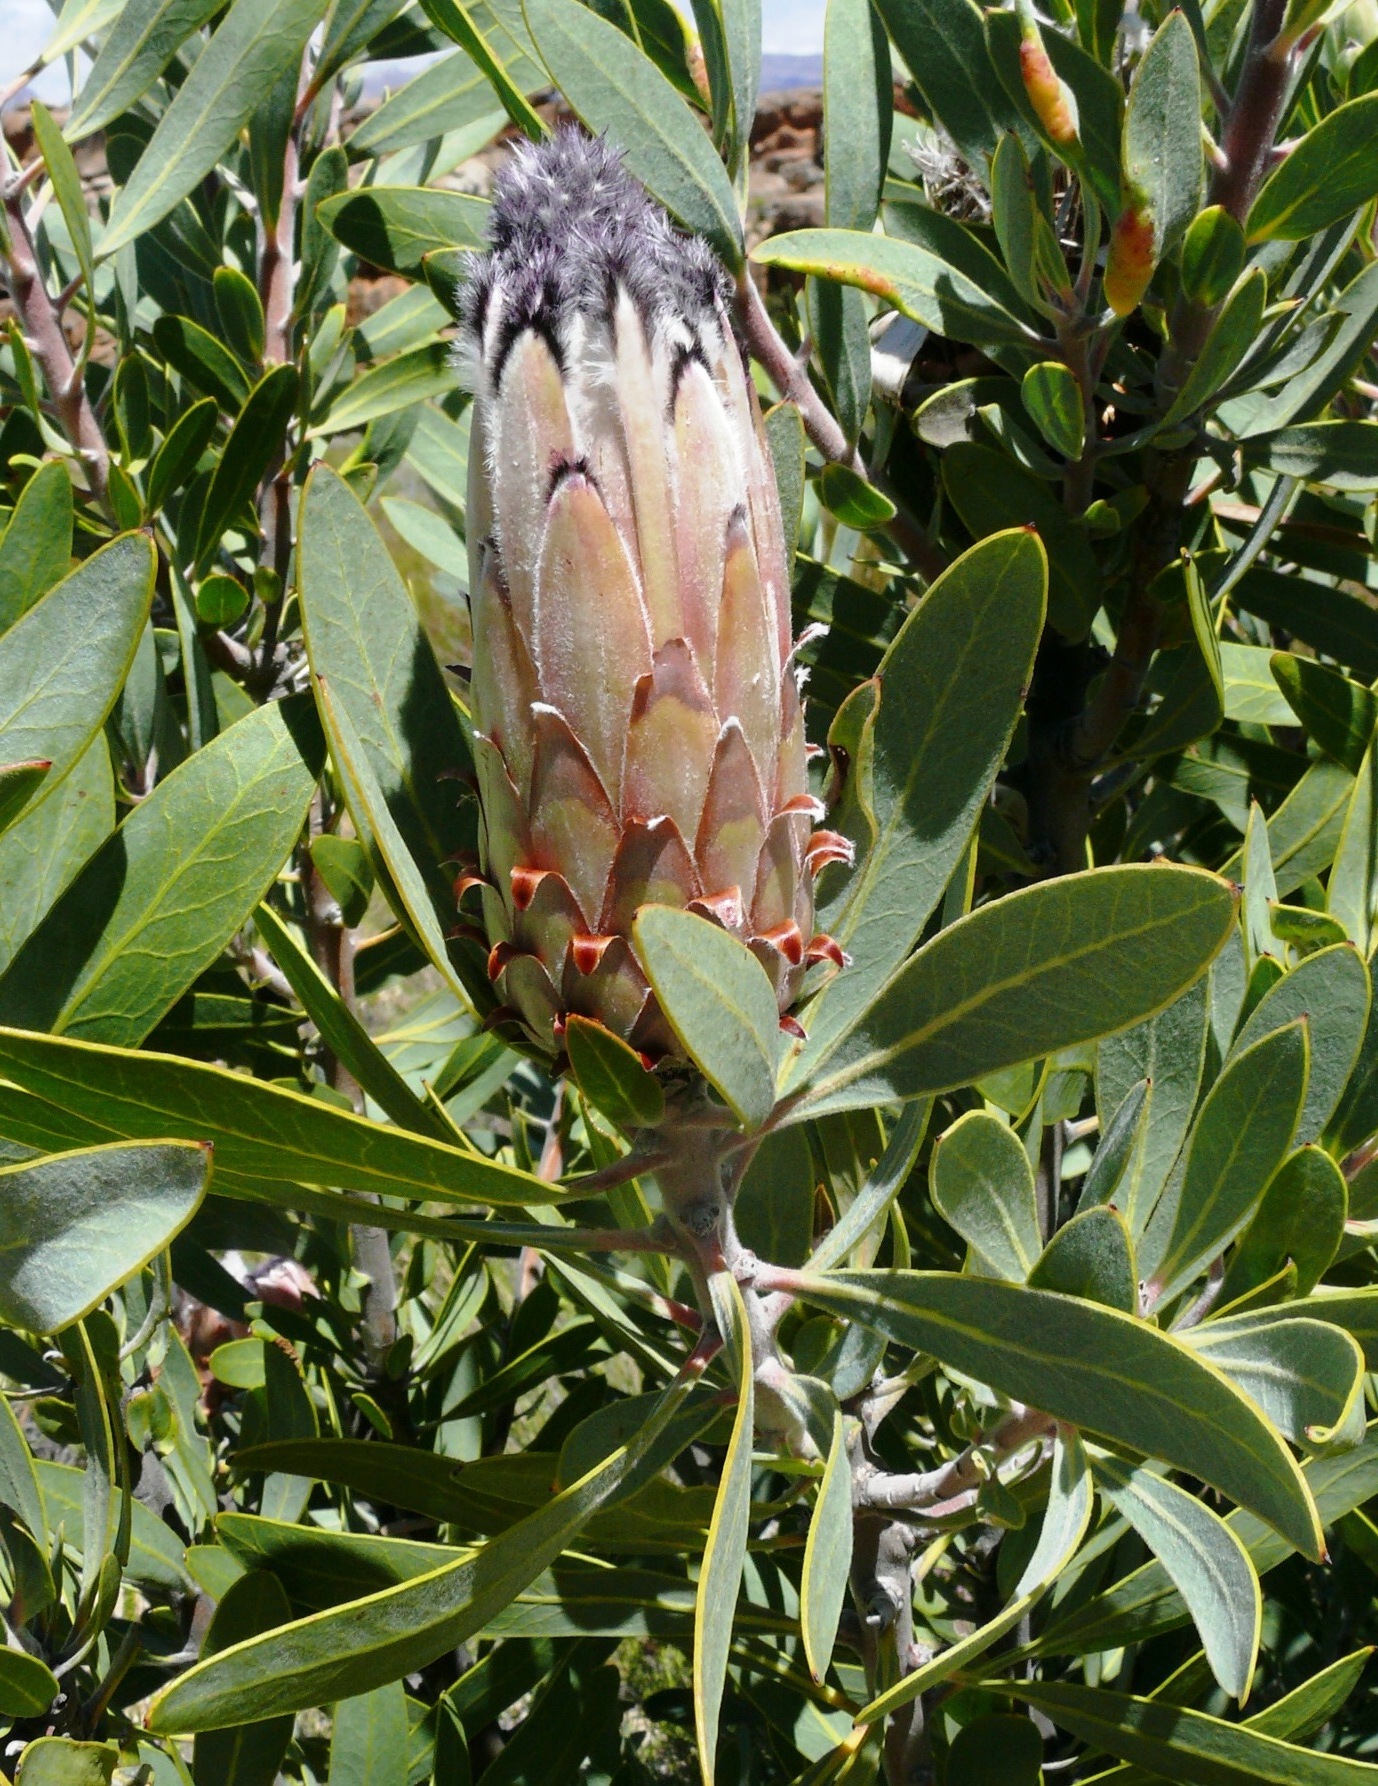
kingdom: Plantae
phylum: Tracheophyta
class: Magnoliopsida
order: Proteales
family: Proteaceae
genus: Protea
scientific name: Protea laurifolia
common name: Grey-leaf sugarbsh
